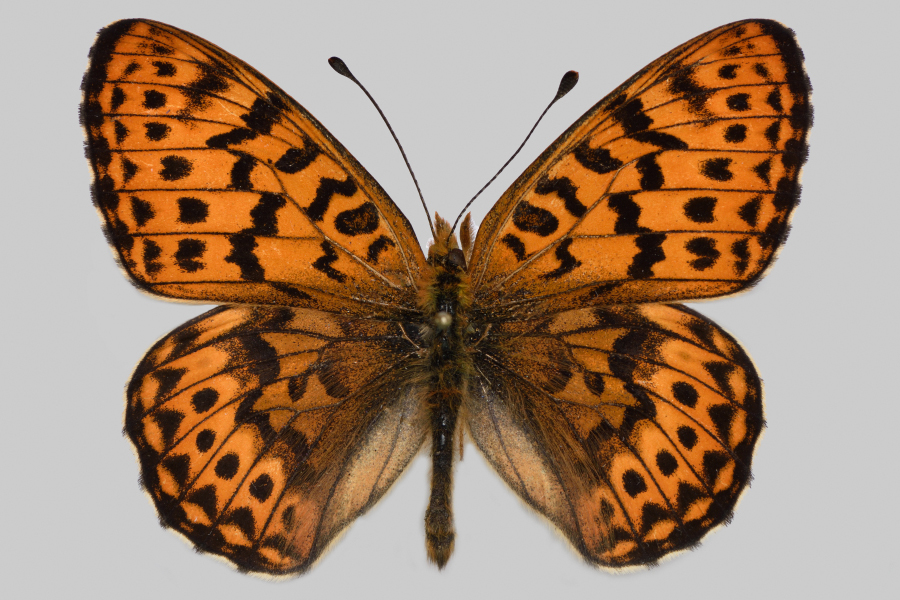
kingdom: Animalia
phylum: Arthropoda
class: Insecta
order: Lepidoptera
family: Nymphalidae
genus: Boloria
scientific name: Boloria tritonia
